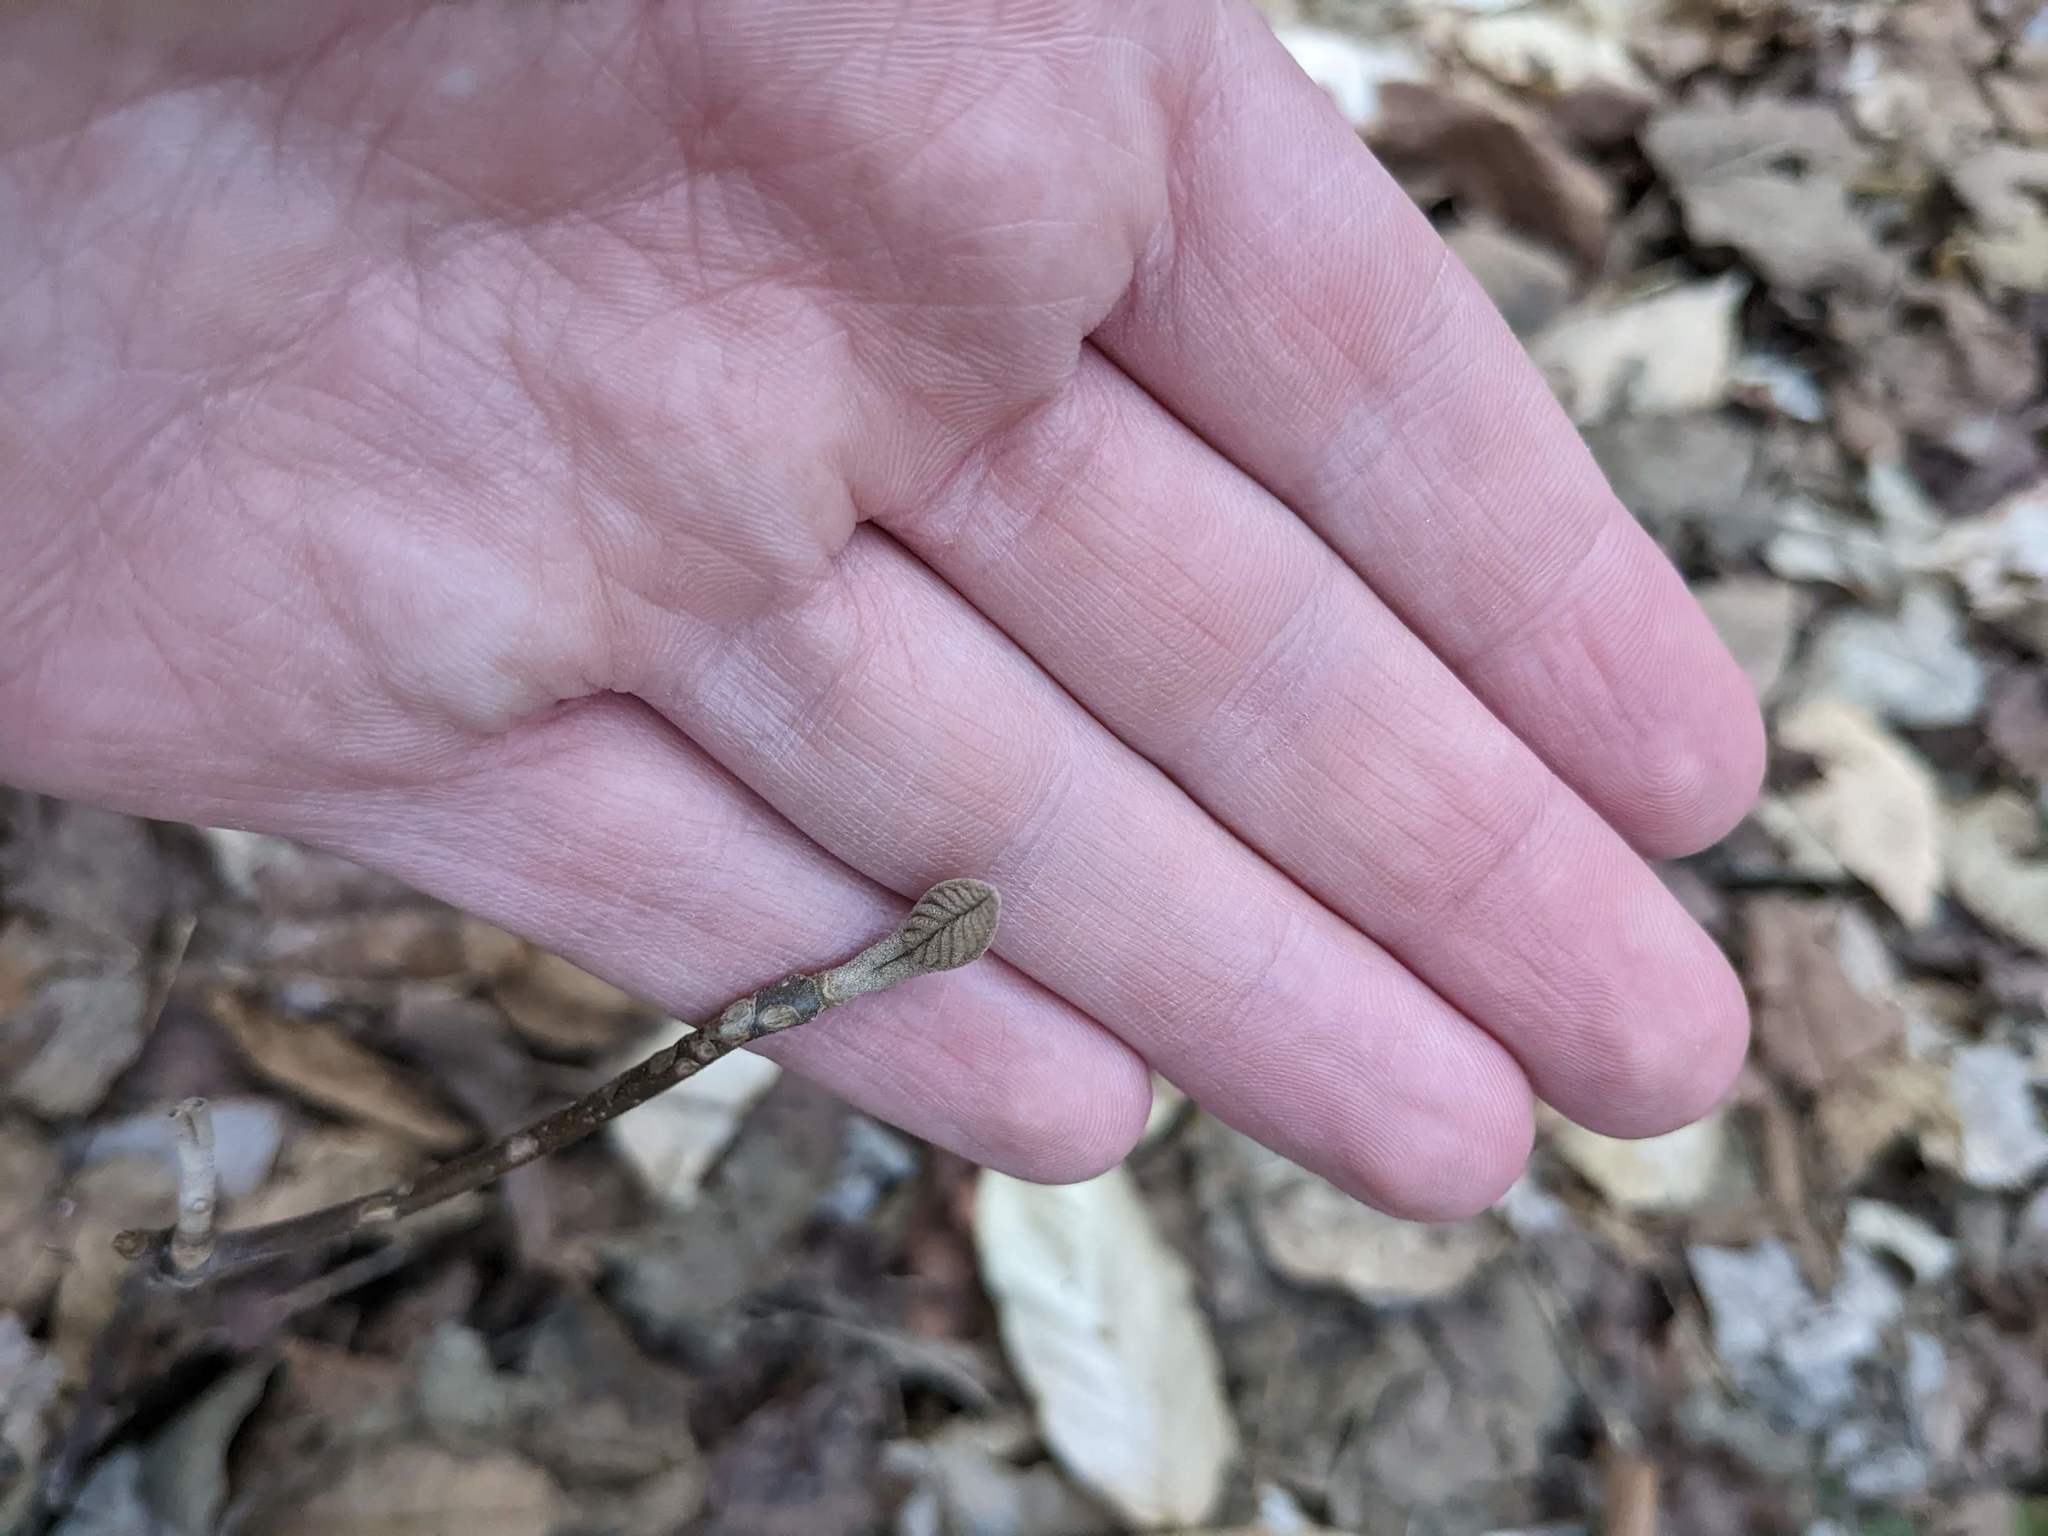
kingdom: Plantae
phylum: Tracheophyta
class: Magnoliopsida
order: Dipsacales
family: Viburnaceae
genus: Viburnum
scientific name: Viburnum lantanoides
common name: Hobblebush
